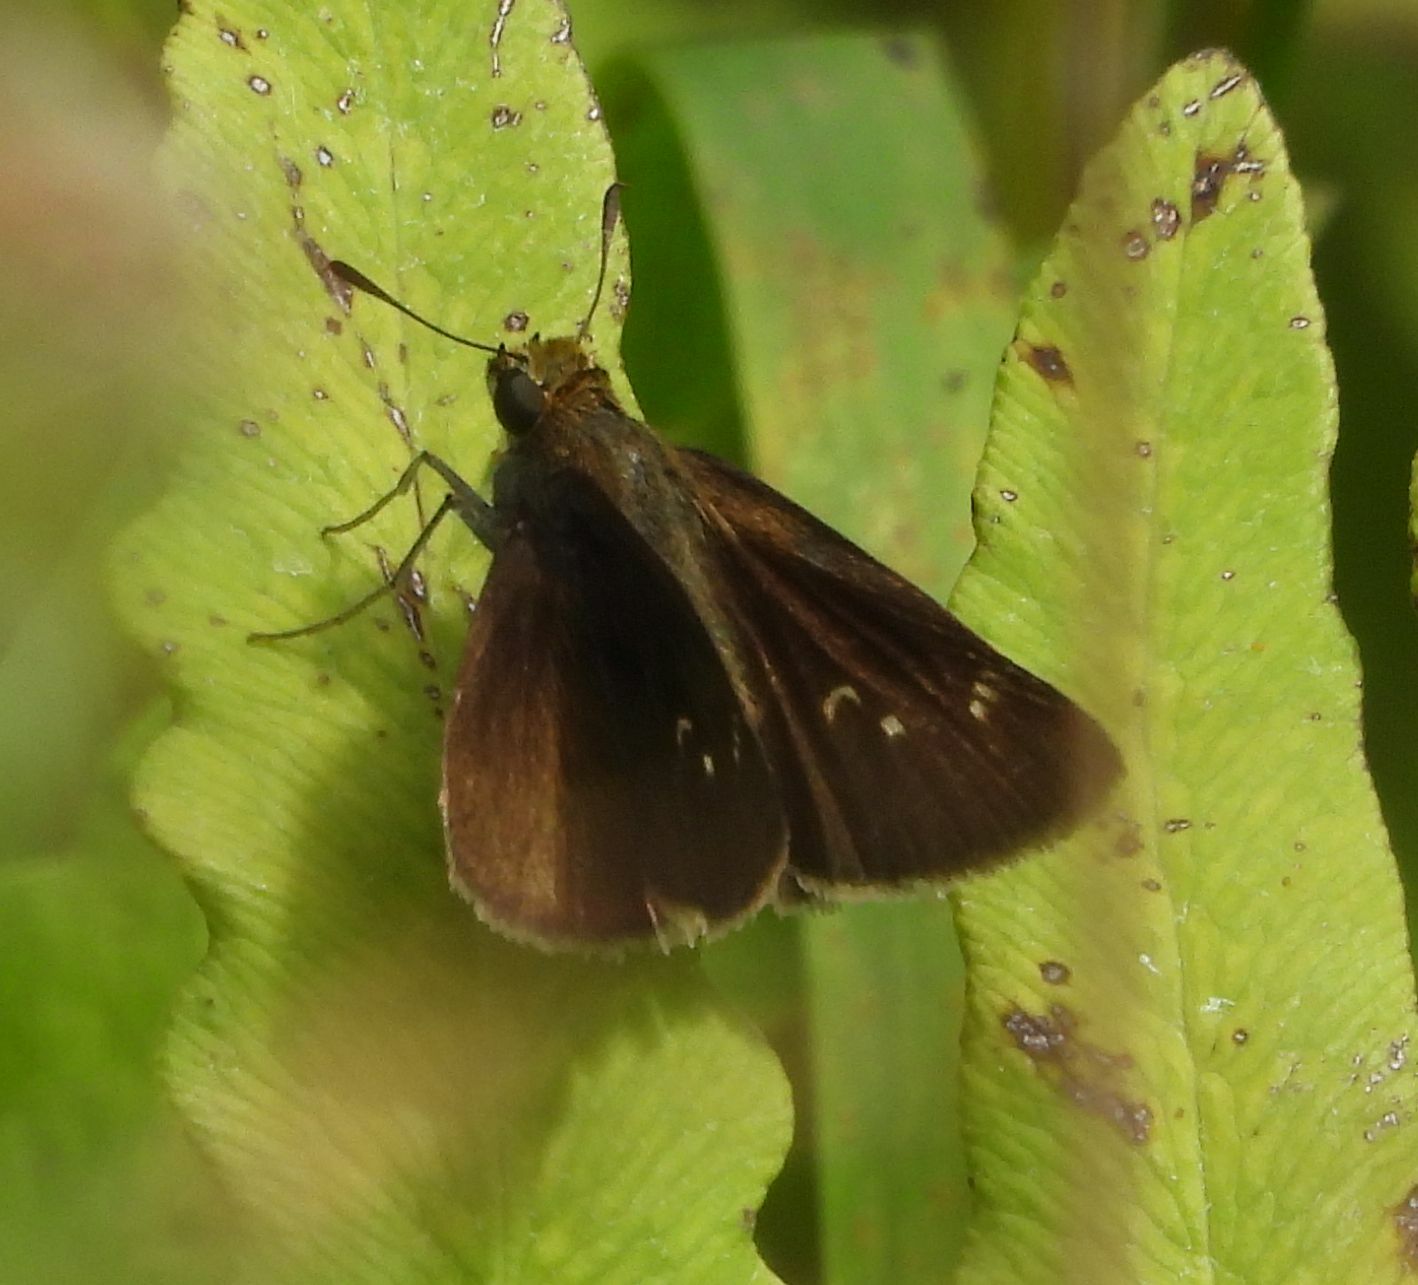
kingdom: Animalia
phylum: Arthropoda
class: Insecta
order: Lepidoptera
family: Hesperiidae
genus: Euphyes
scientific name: Euphyes vestris
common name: Dun skipper
